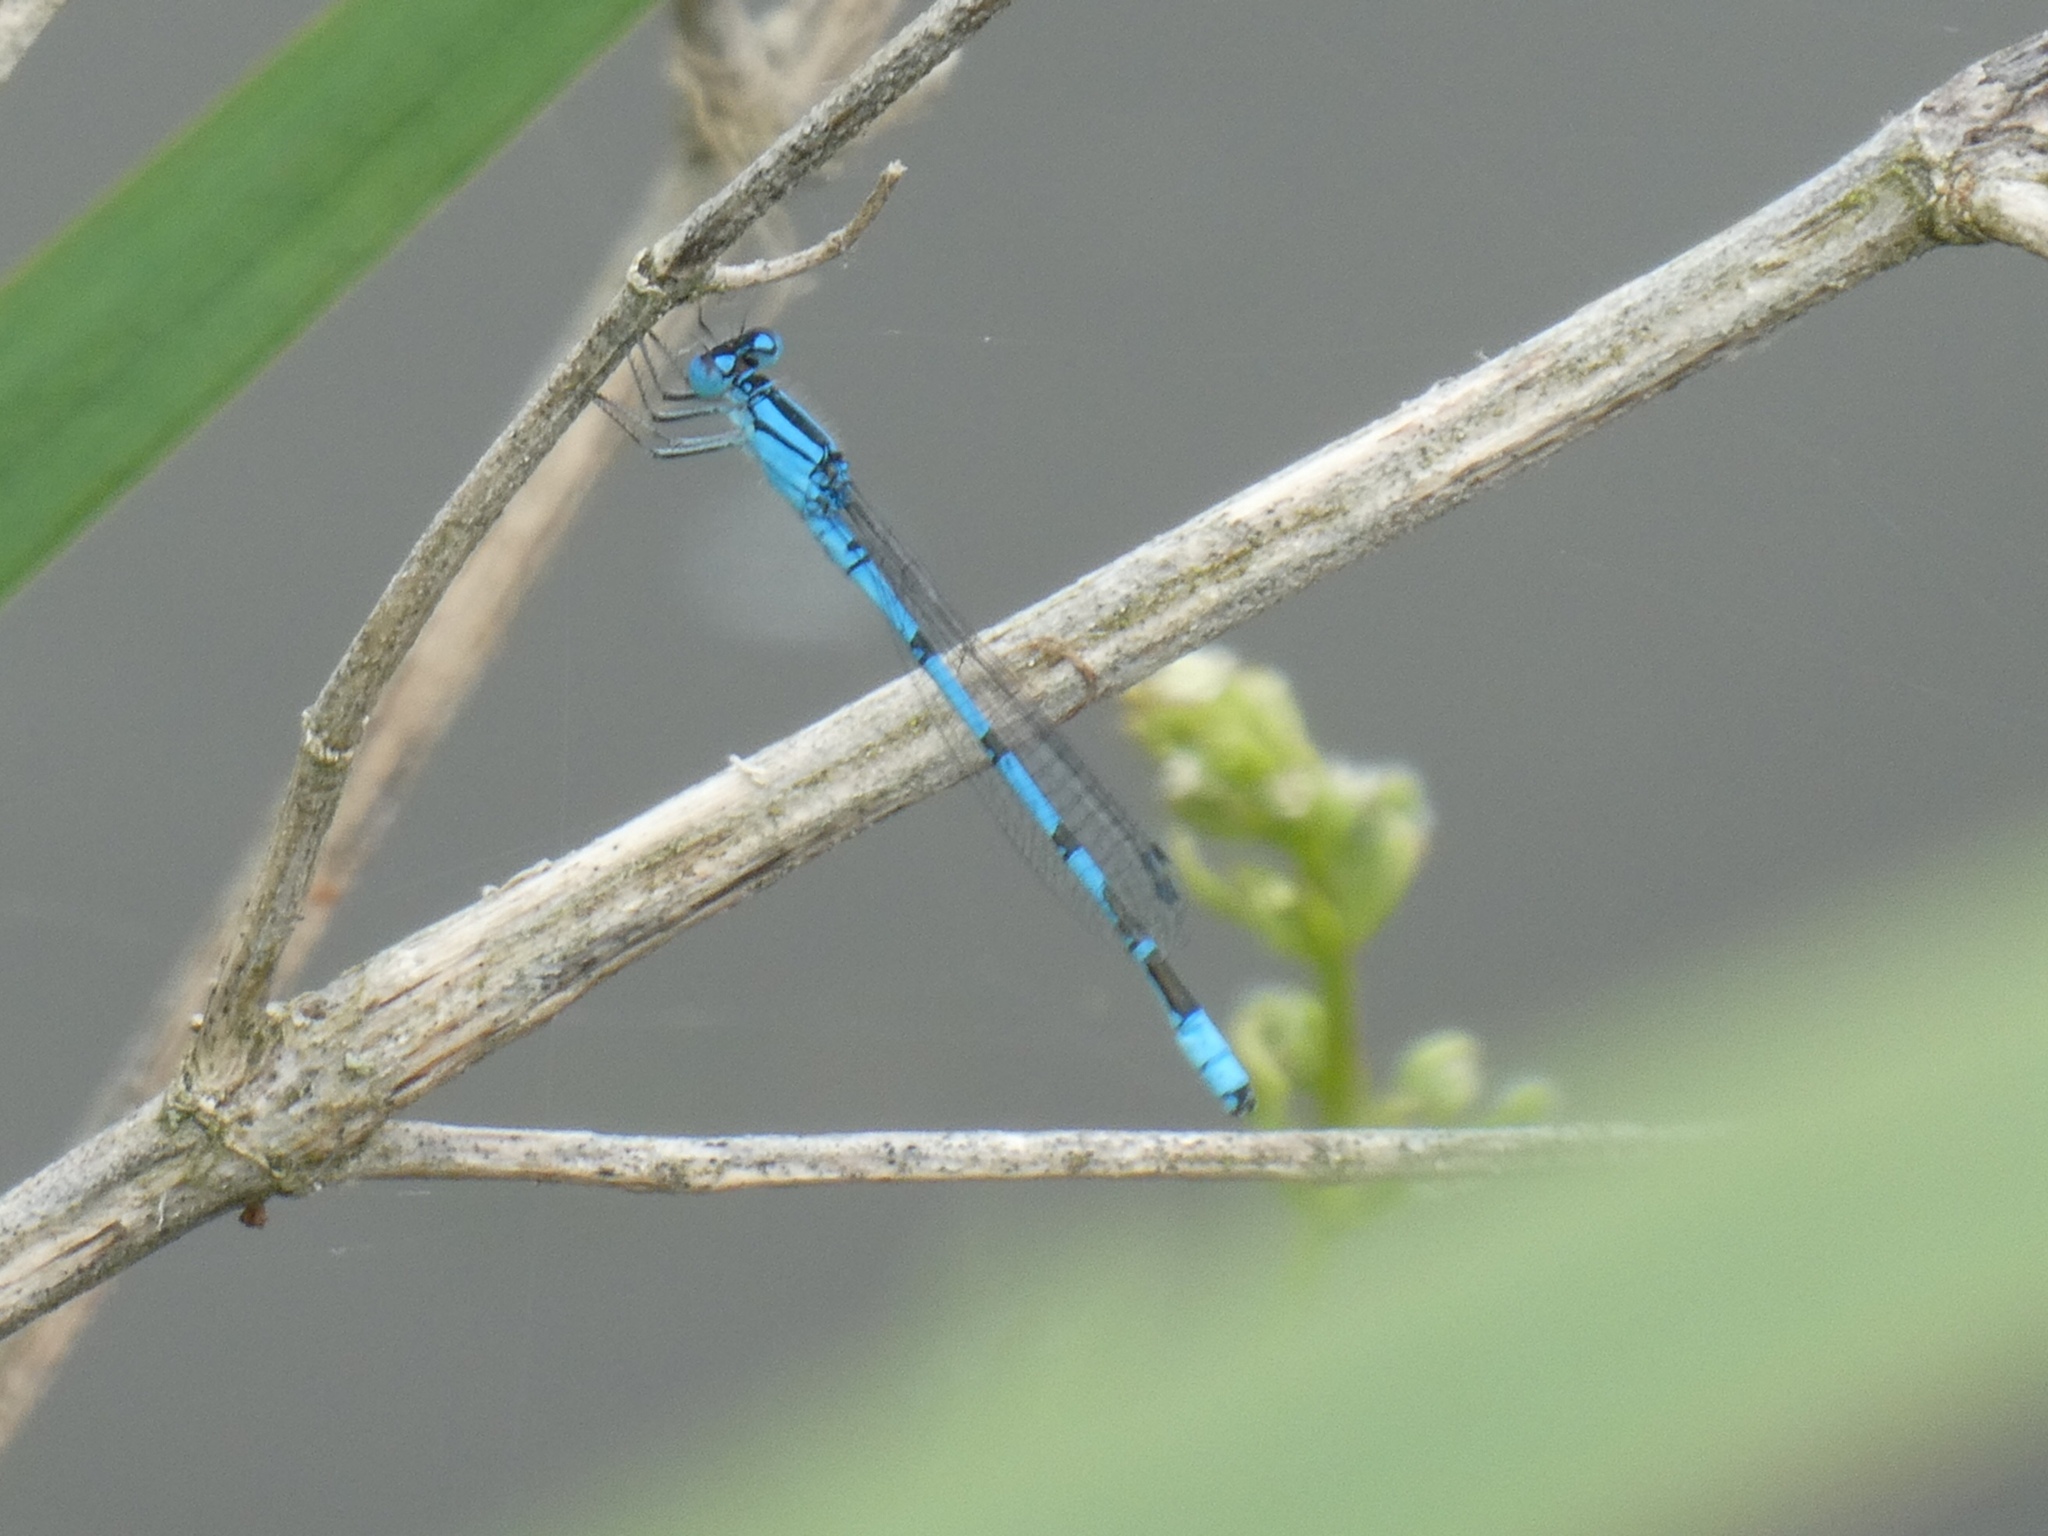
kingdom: Animalia
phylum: Arthropoda
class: Insecta
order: Odonata
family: Coenagrionidae
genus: Enallagma
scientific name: Enallagma cyathigerum
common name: Common blue damselfly
